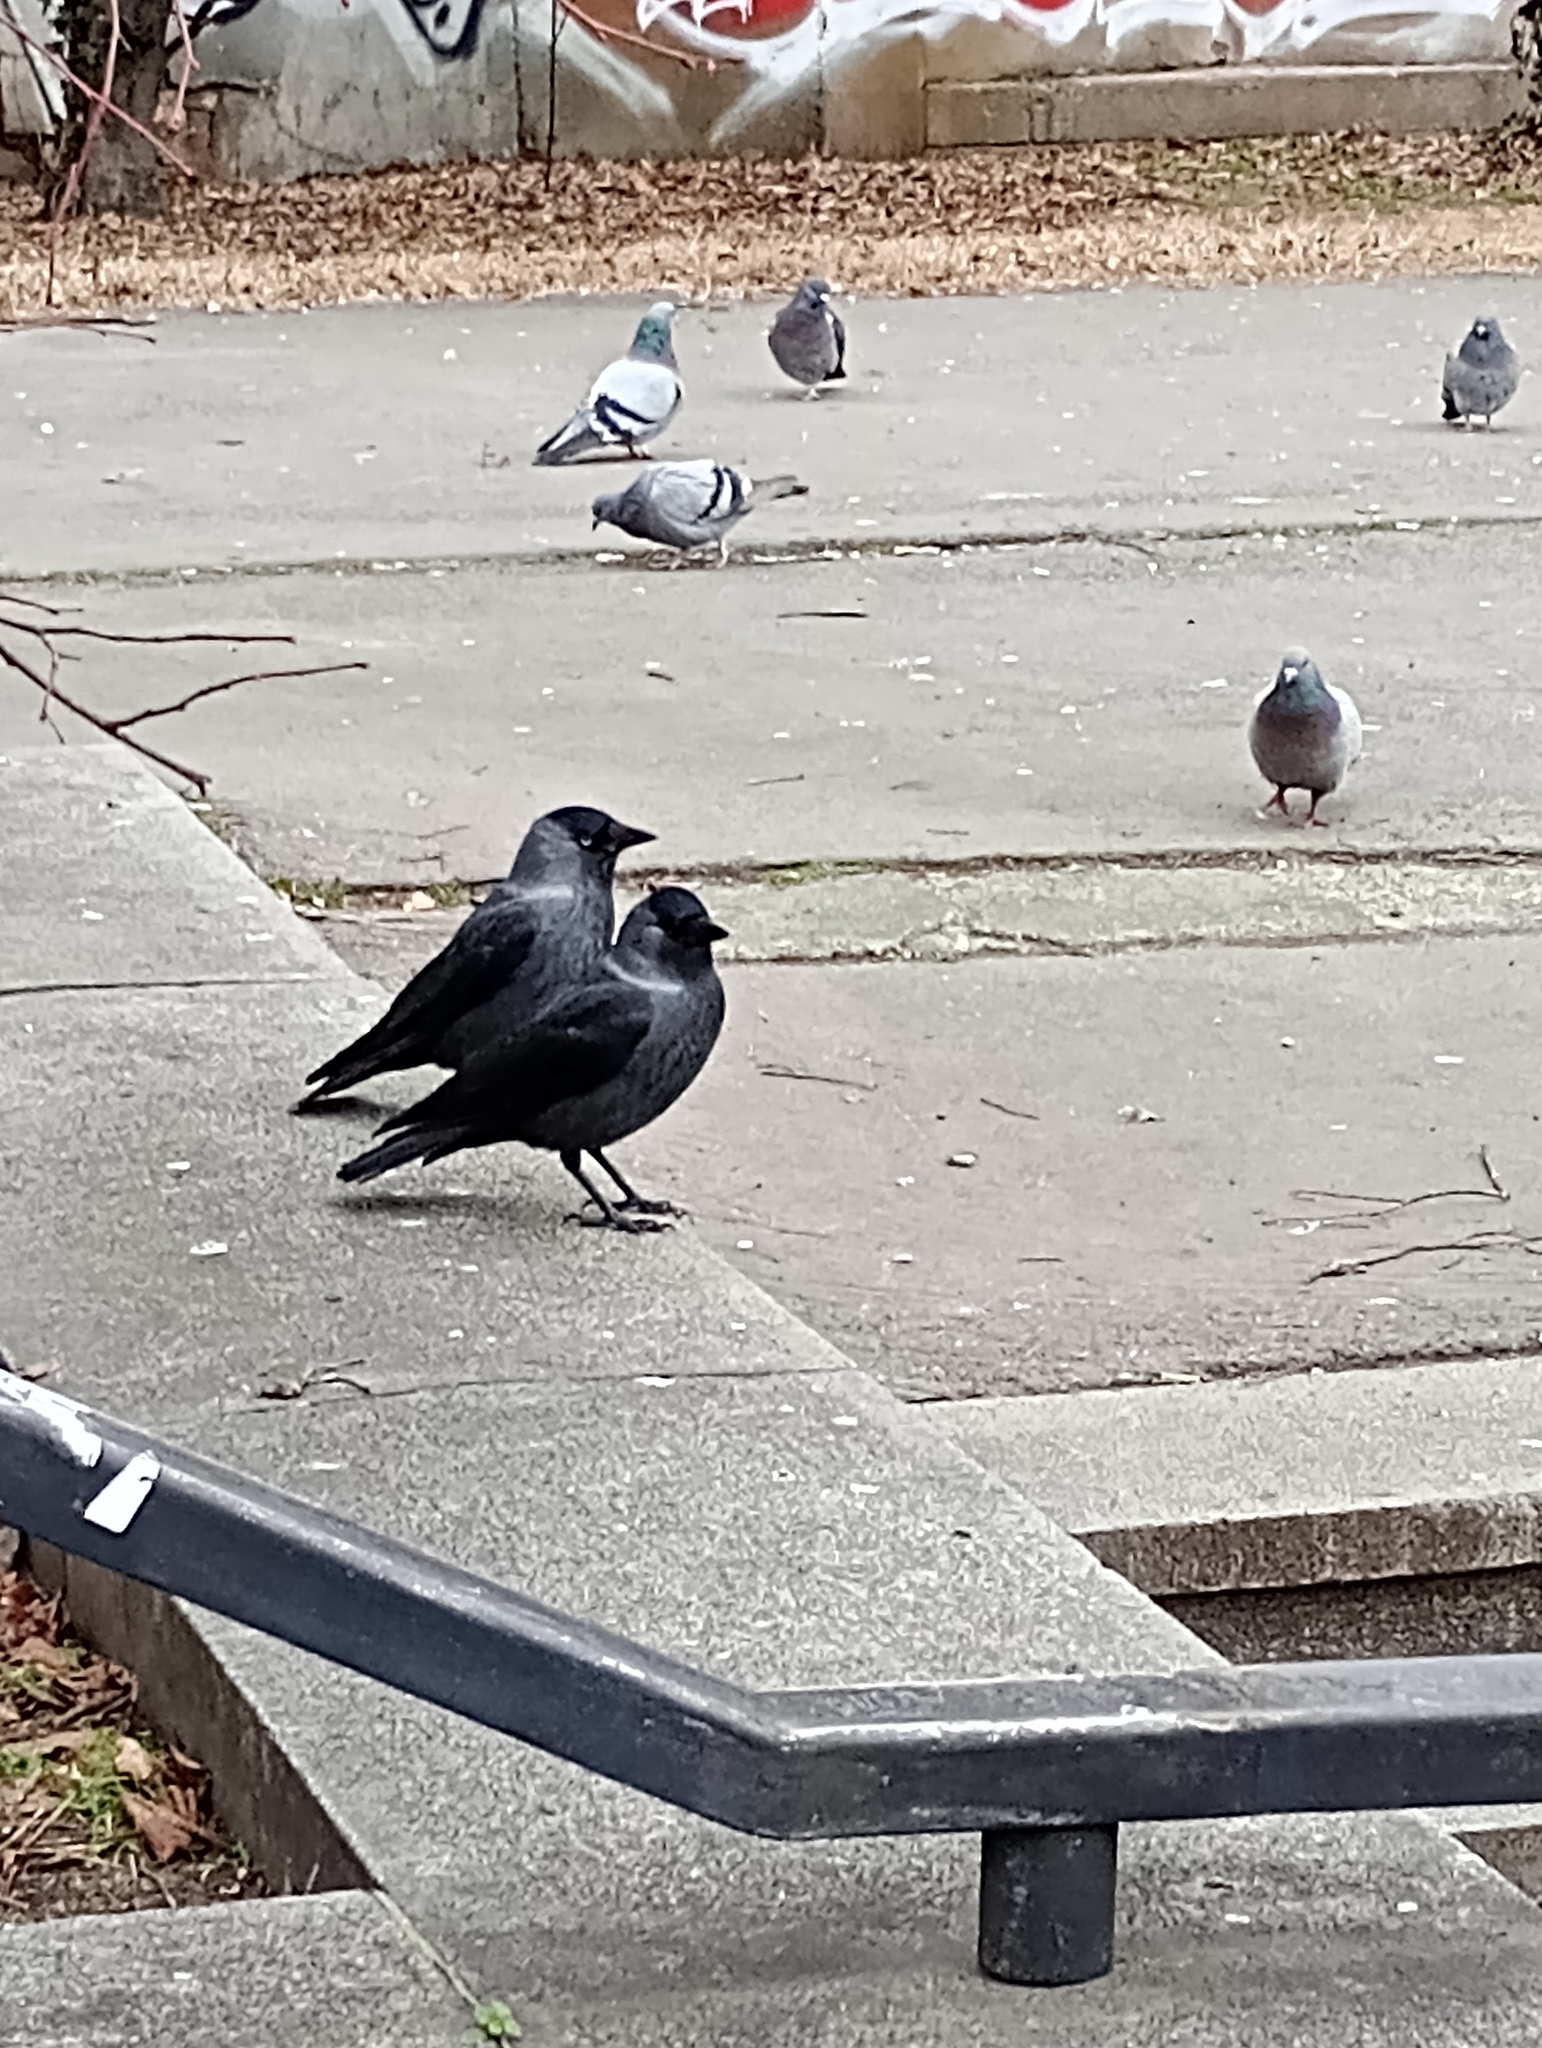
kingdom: Animalia
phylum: Chordata
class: Aves
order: Passeriformes
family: Corvidae
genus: Coloeus
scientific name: Coloeus monedula
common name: Western jackdaw
